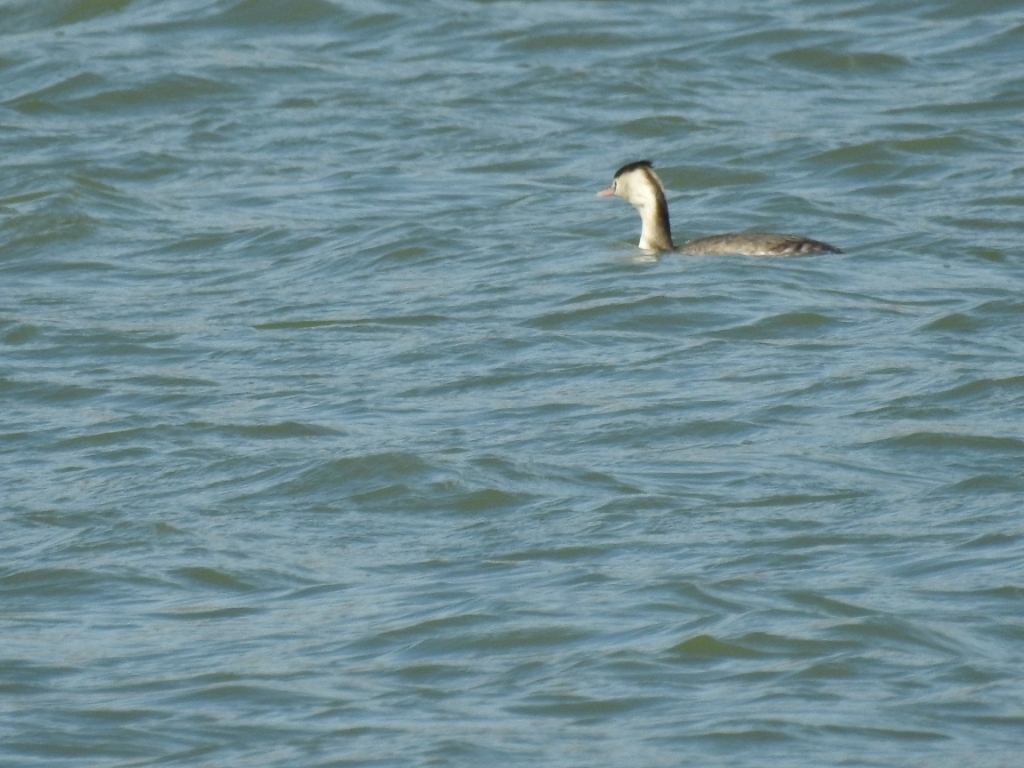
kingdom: Animalia
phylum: Chordata
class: Aves
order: Podicipediformes
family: Podicipedidae
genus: Podiceps
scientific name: Podiceps cristatus
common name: Great crested grebe
